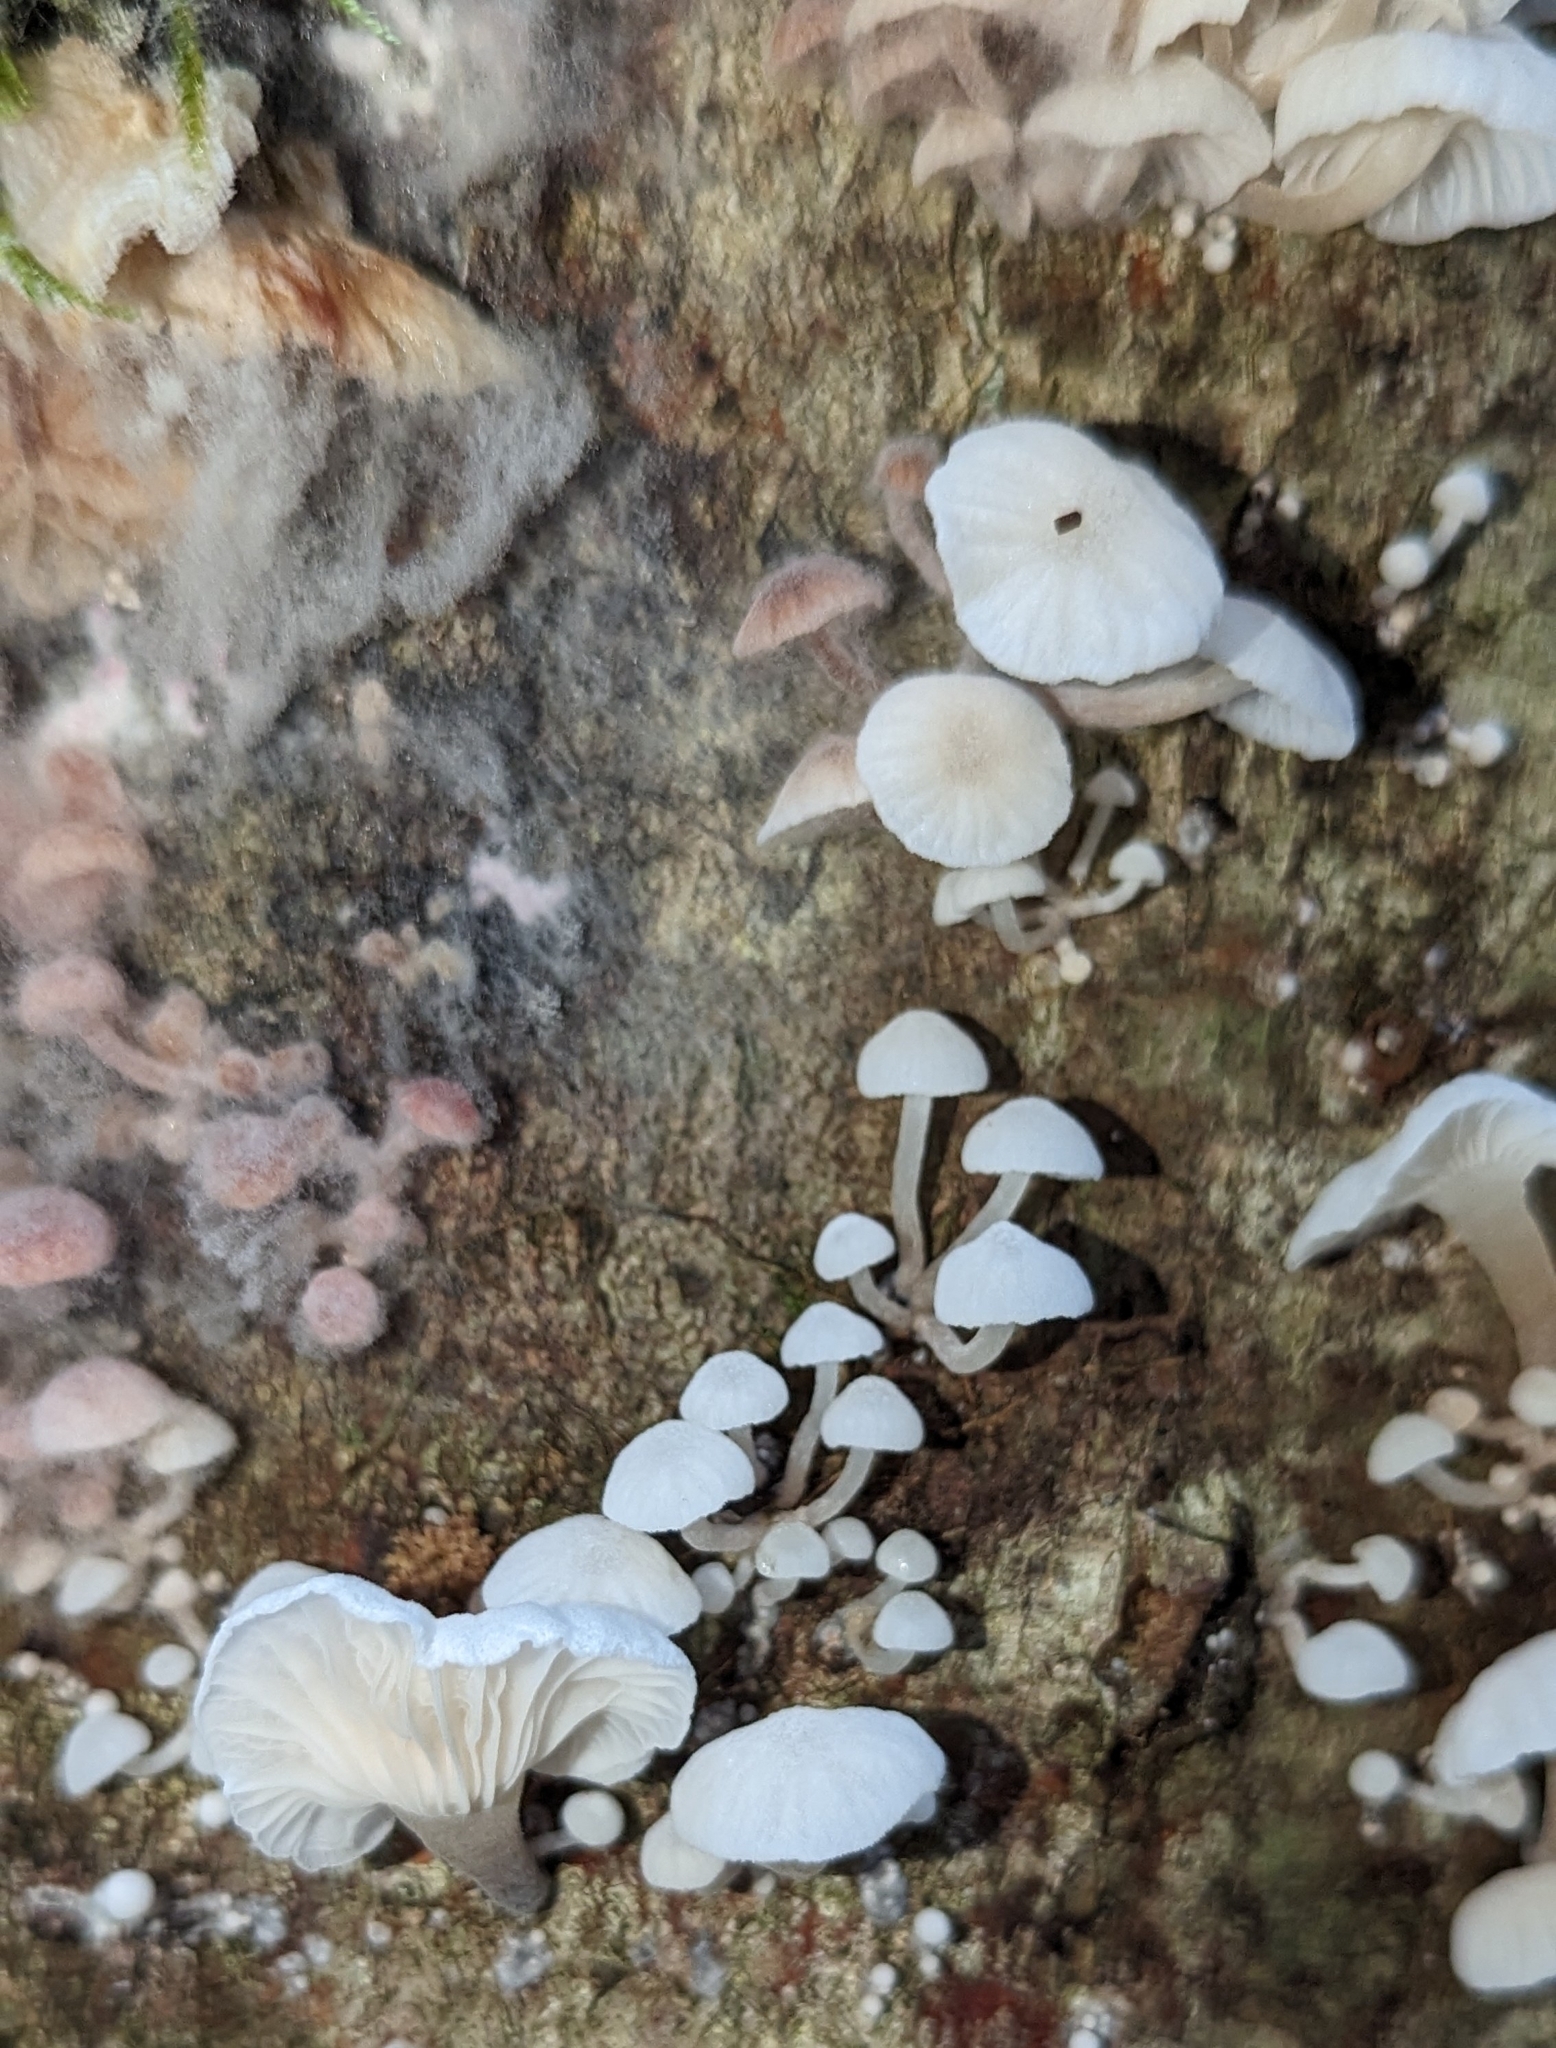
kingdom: Fungi
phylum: Basidiomycota
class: Agaricomycetes
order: Agaricales
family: Omphalotaceae
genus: Marasmiellus
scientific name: Marasmiellus candidus
